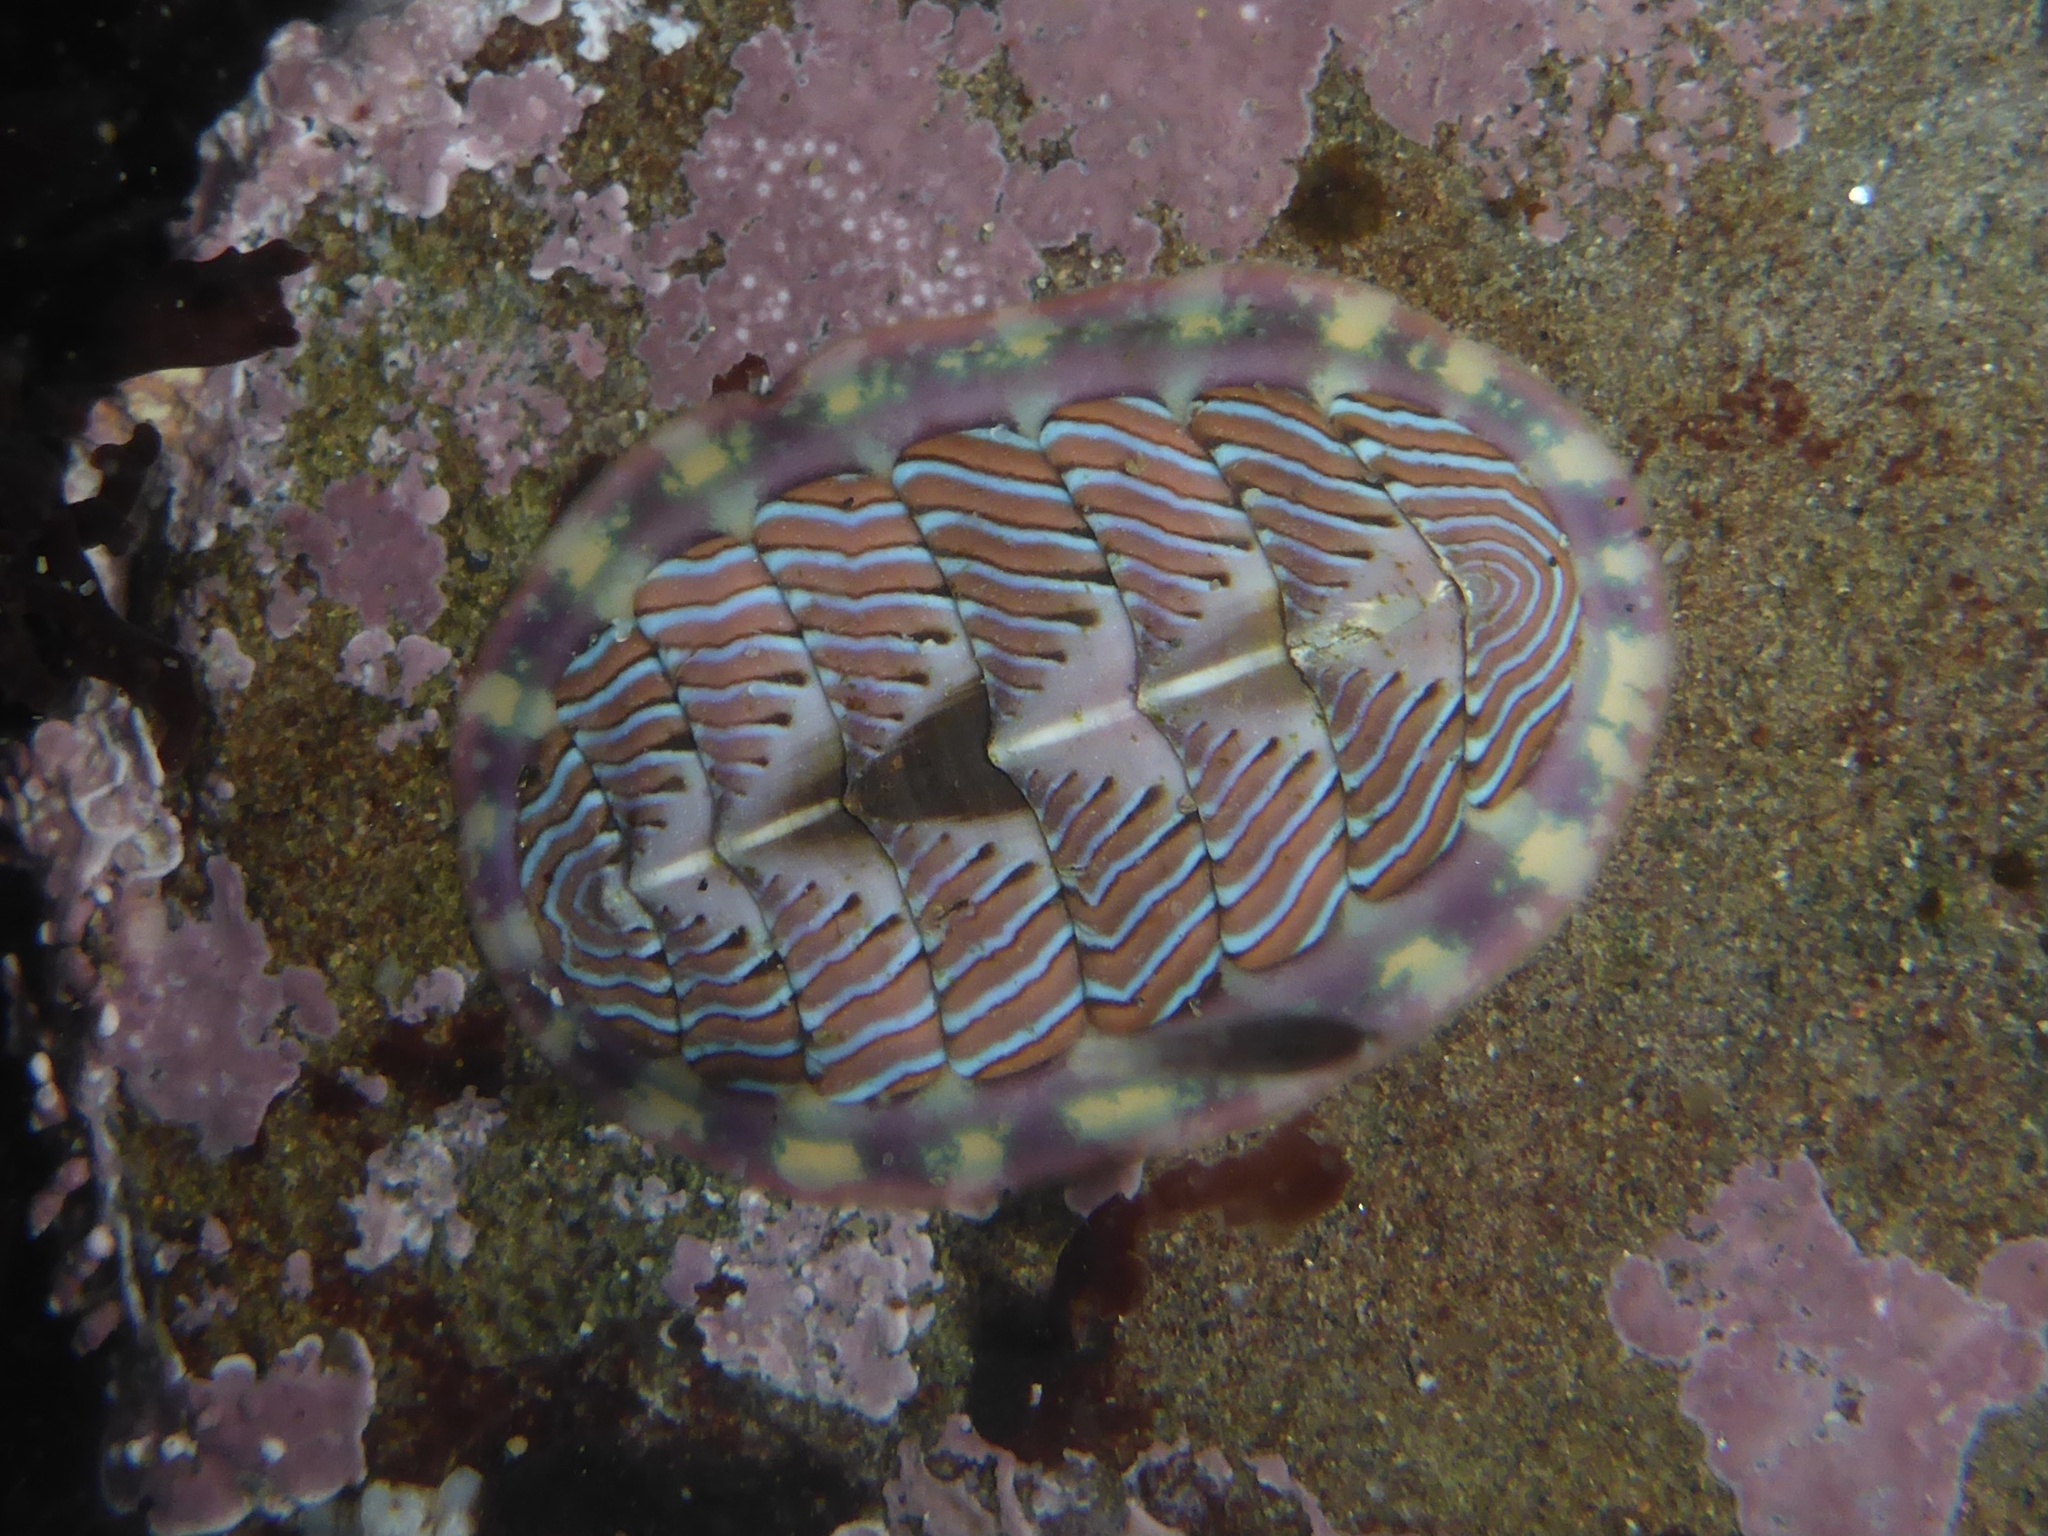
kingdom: Animalia
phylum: Mollusca
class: Polyplacophora
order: Chitonida
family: Tonicellidae
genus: Tonicella
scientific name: Tonicella lineata
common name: Lined chiton
